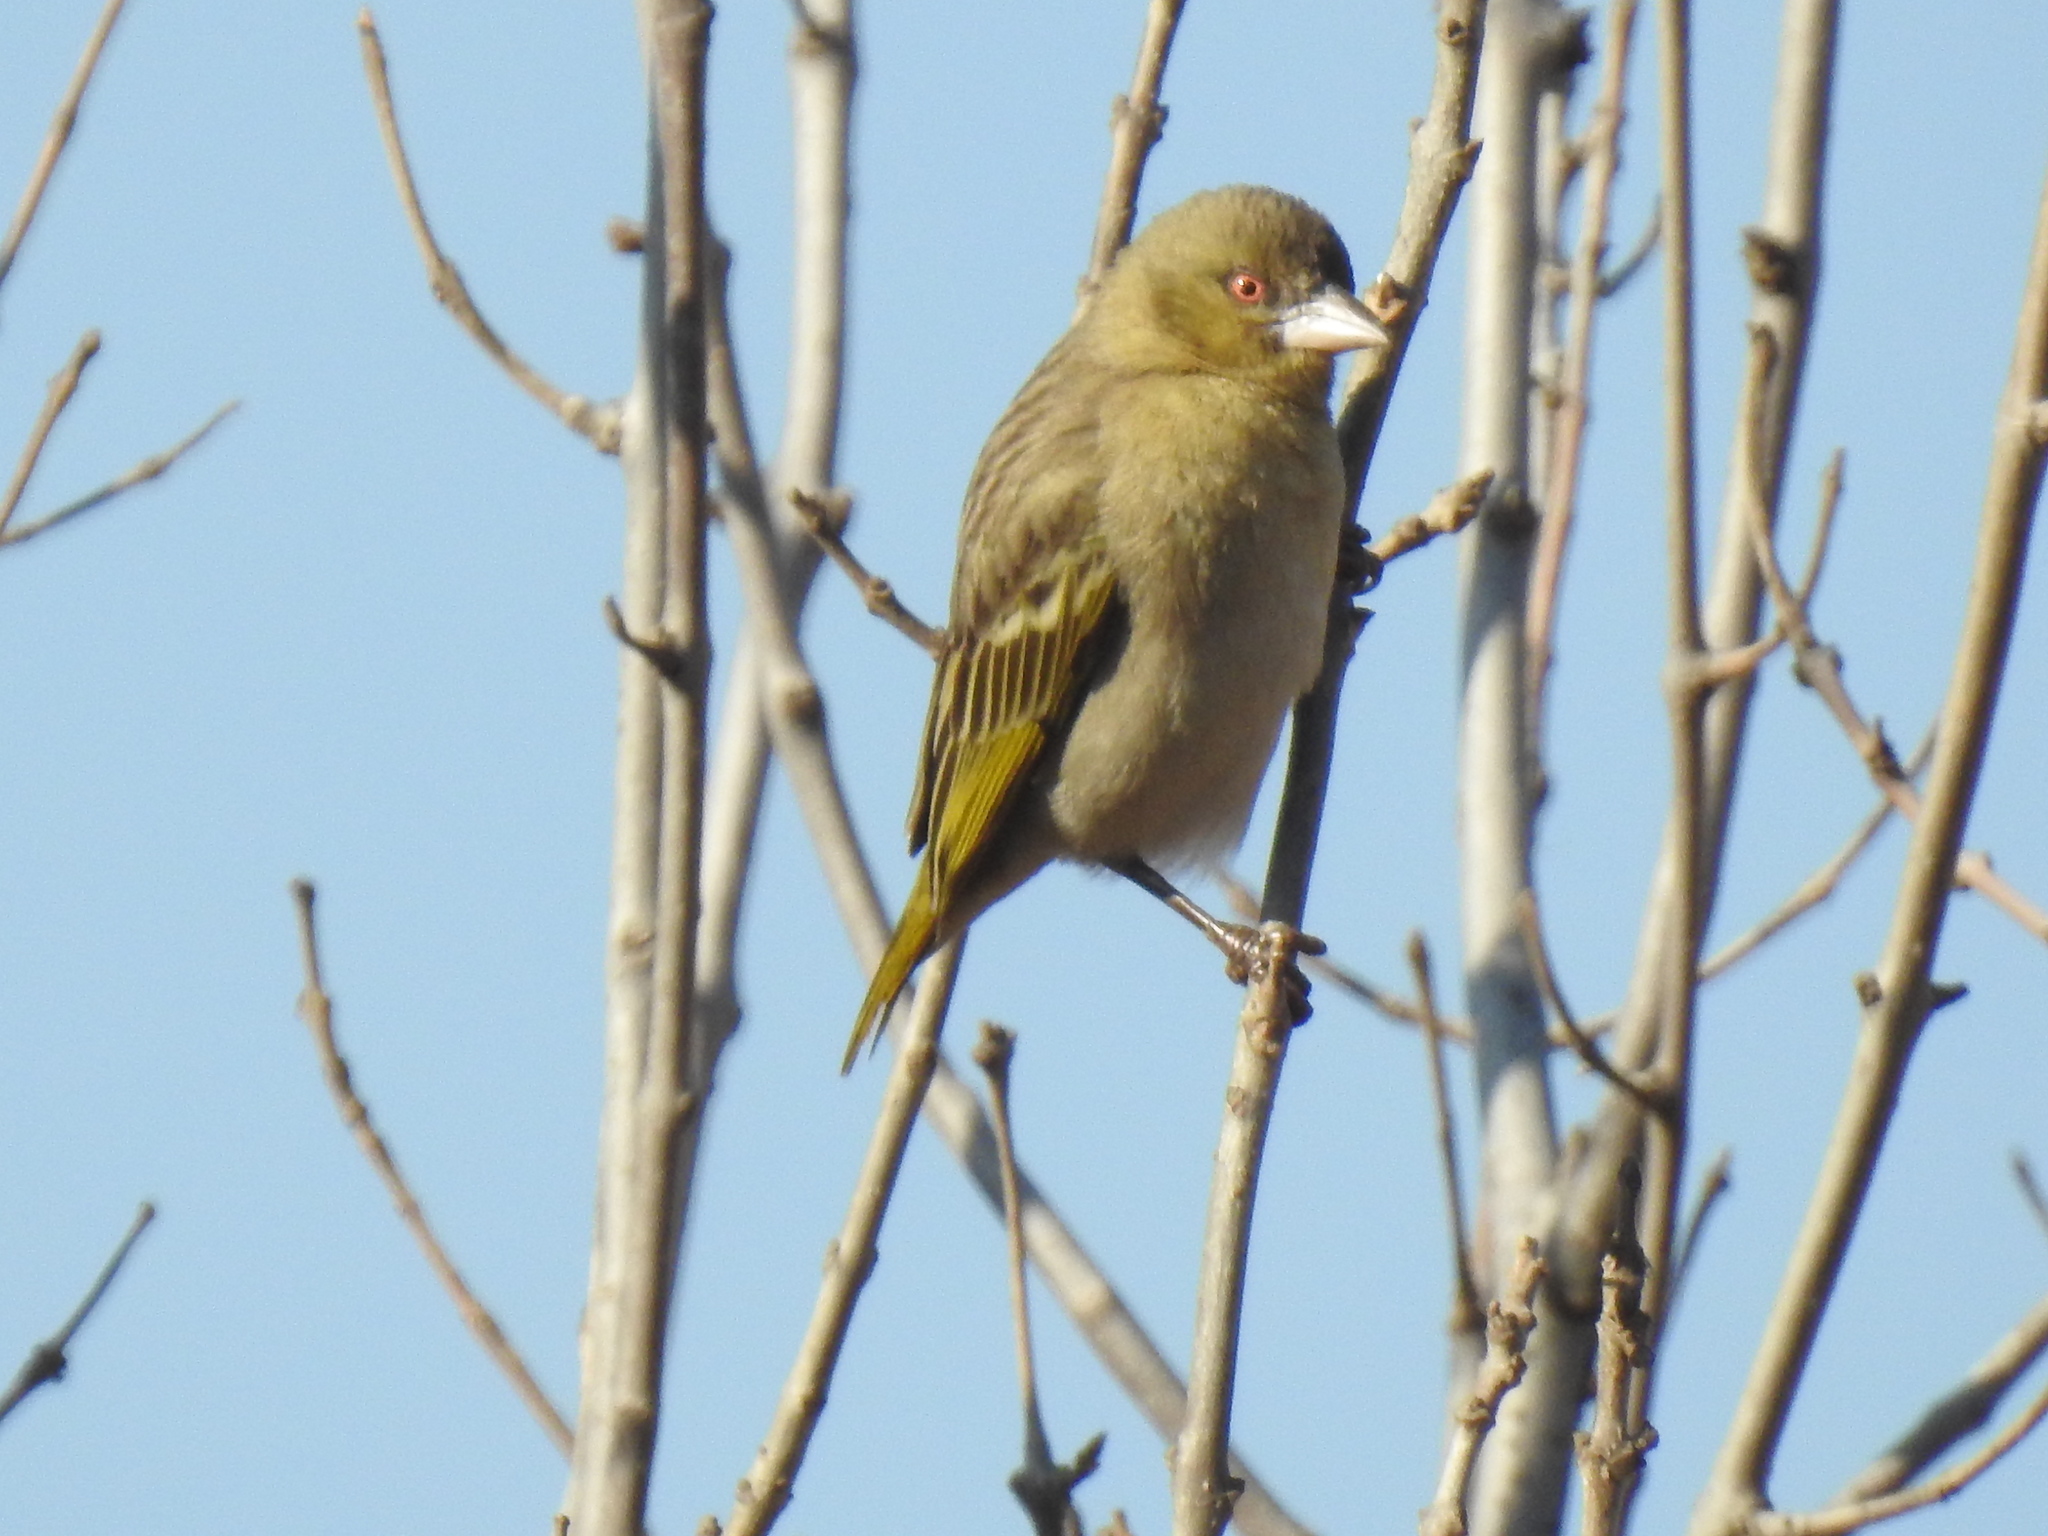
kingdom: Animalia
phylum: Chordata
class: Aves
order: Passeriformes
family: Ploceidae
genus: Ploceus
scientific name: Ploceus velatus
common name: Southern masked weaver
